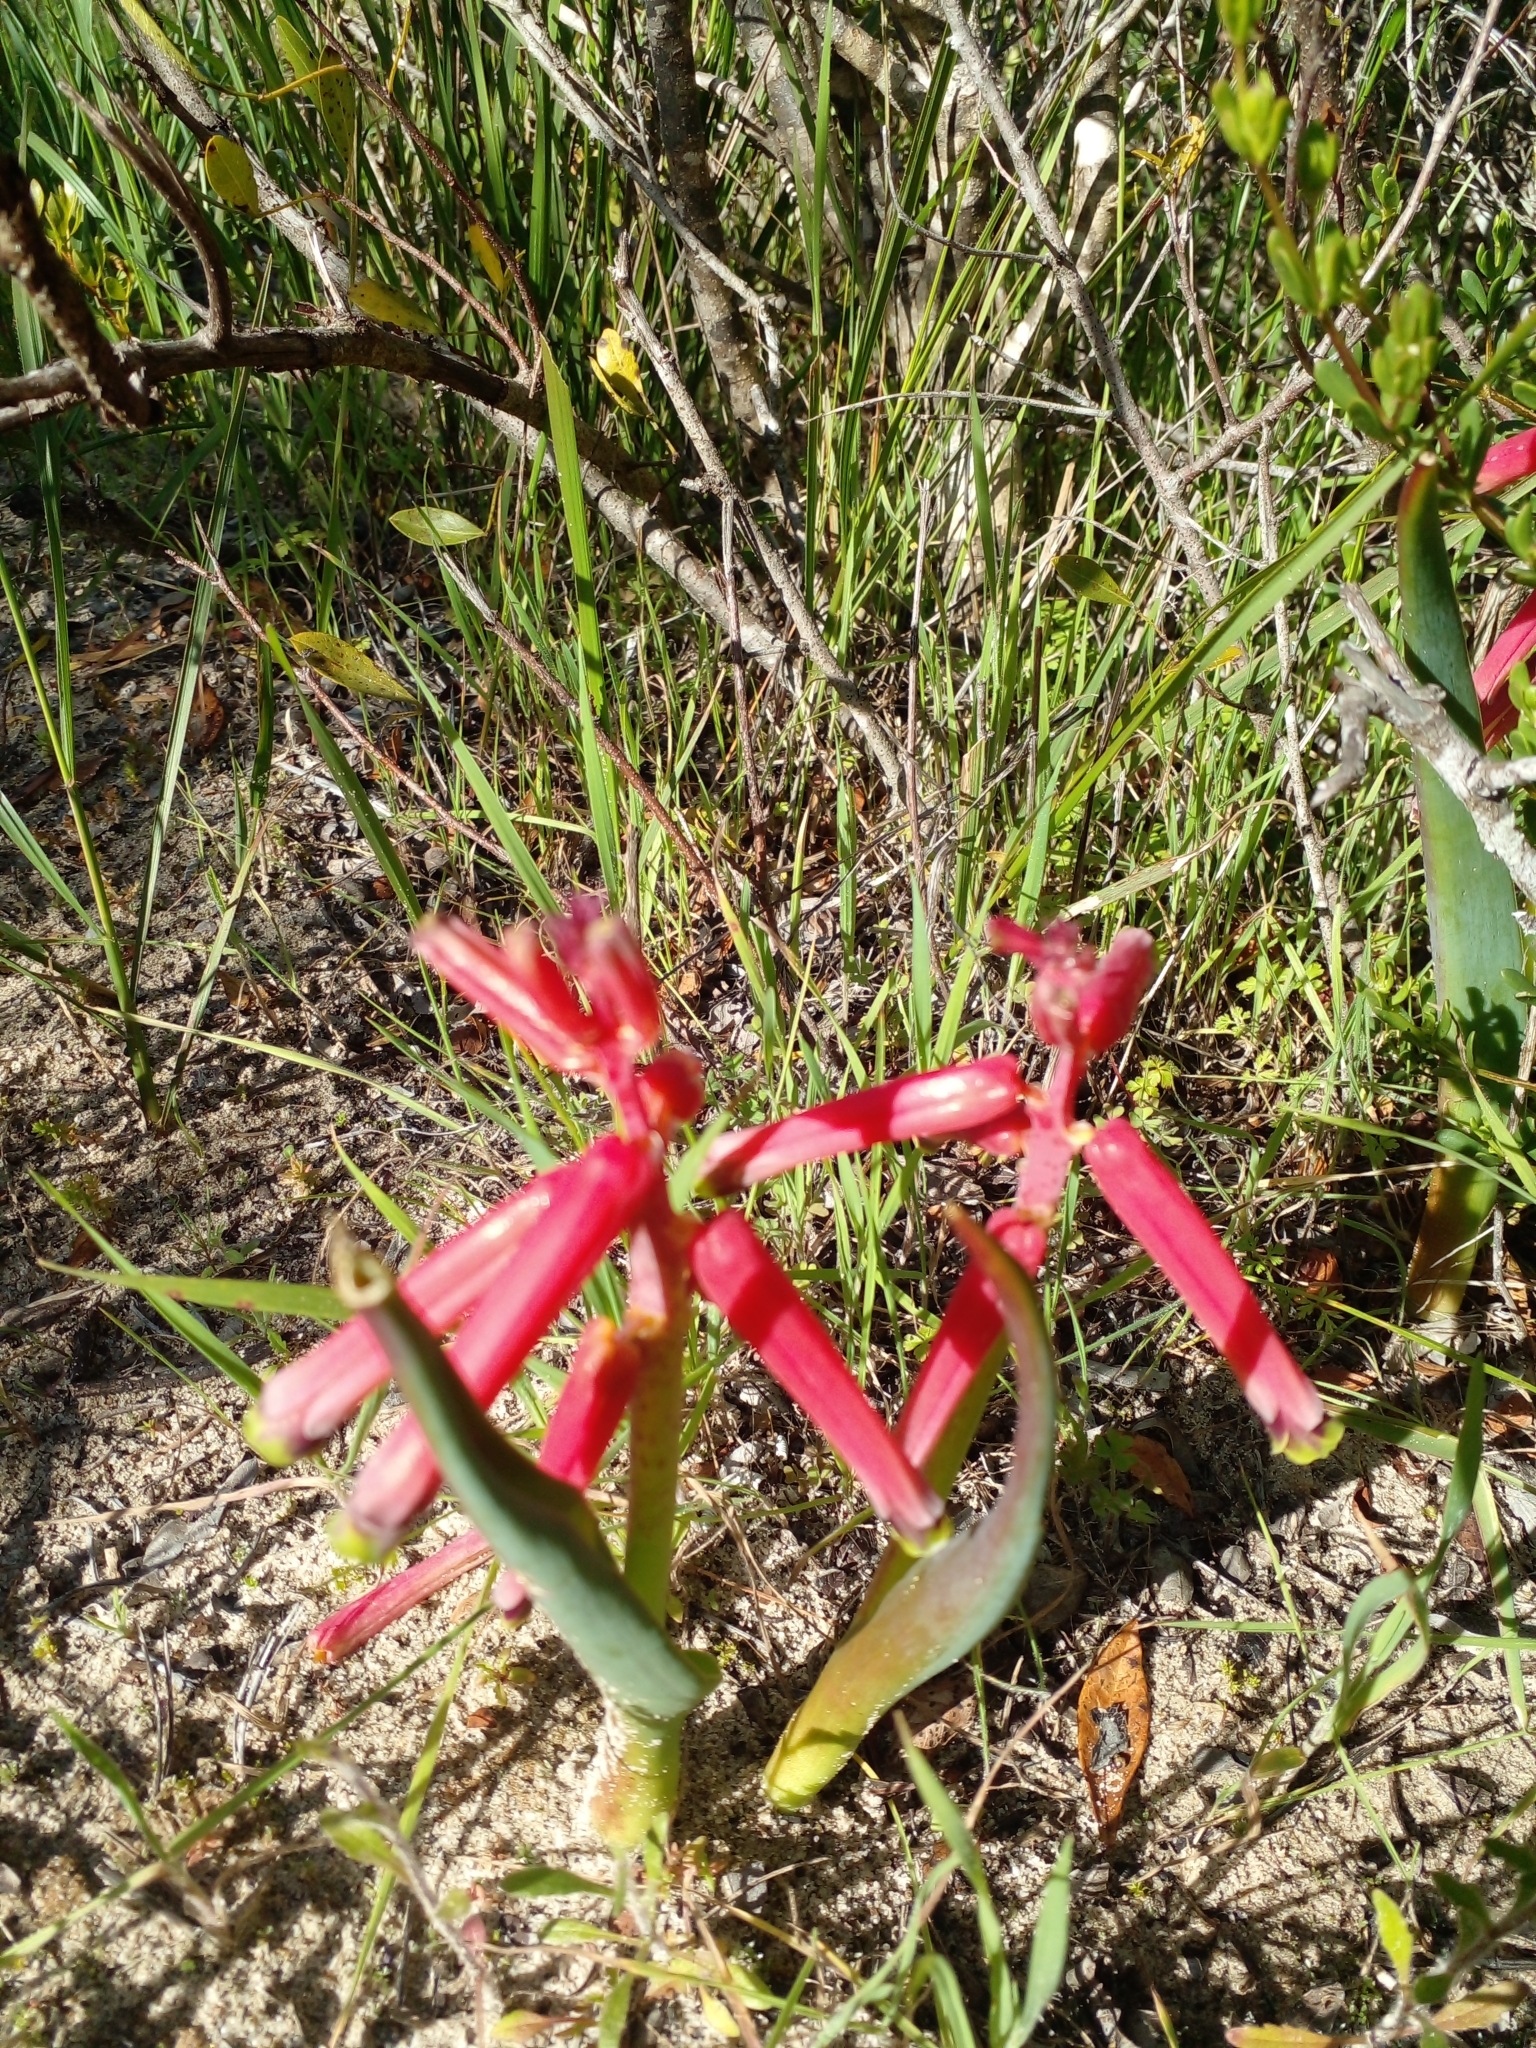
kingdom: Plantae
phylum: Tracheophyta
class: Liliopsida
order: Asparagales
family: Asparagaceae
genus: Lachenalia
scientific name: Lachenalia bulbifera
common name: Red lachenalia
